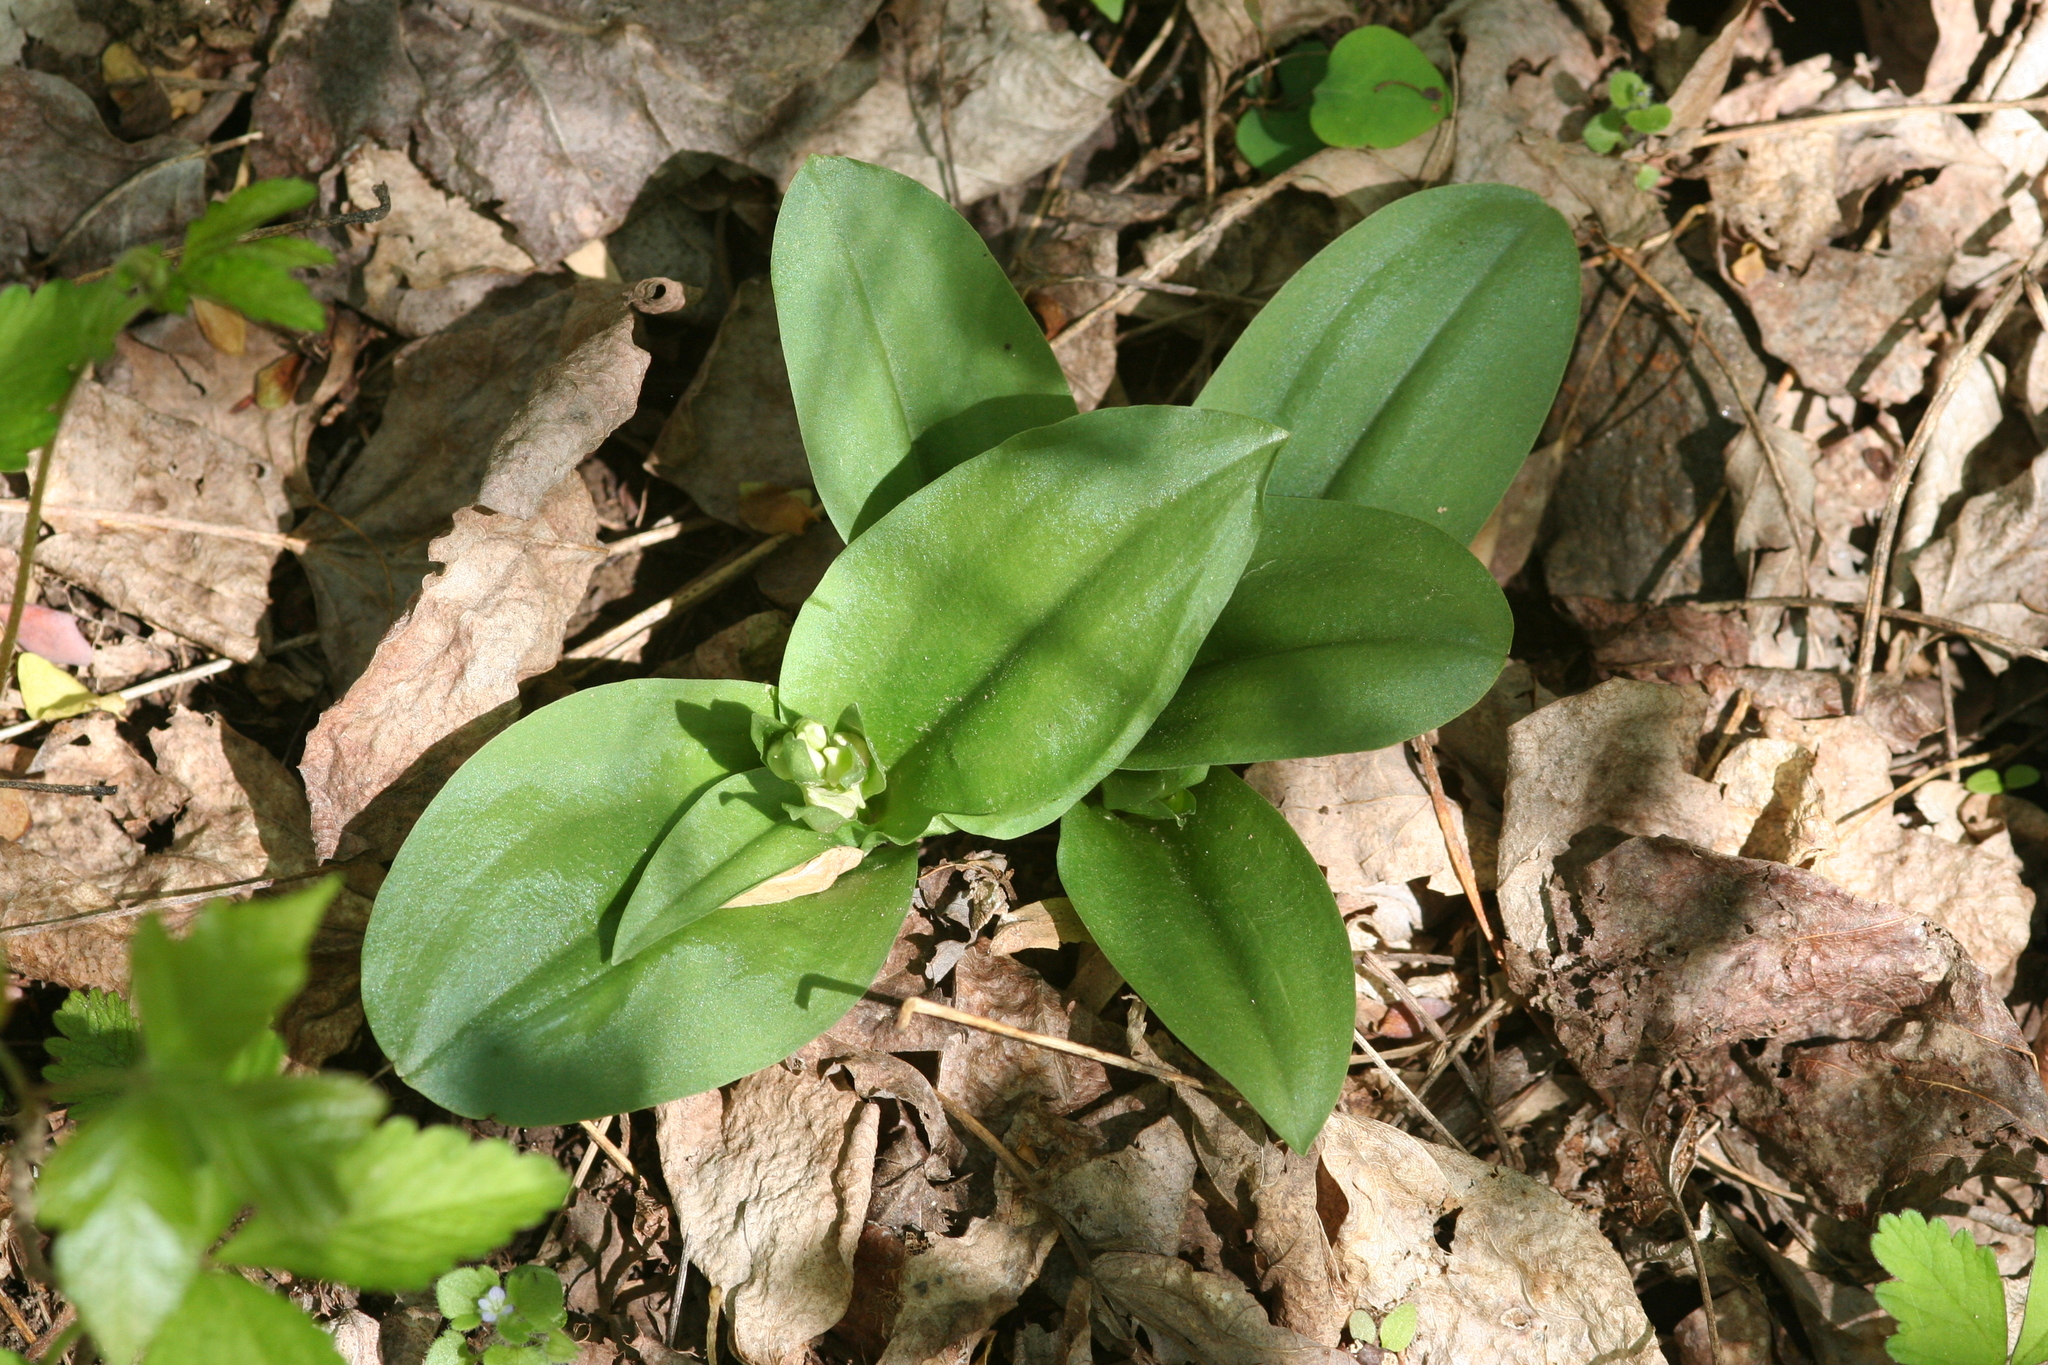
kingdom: Plantae
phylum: Tracheophyta
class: Liliopsida
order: Asparagales
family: Orchidaceae
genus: Galearis
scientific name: Galearis spectabilis
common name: Purple-hooded orchis
